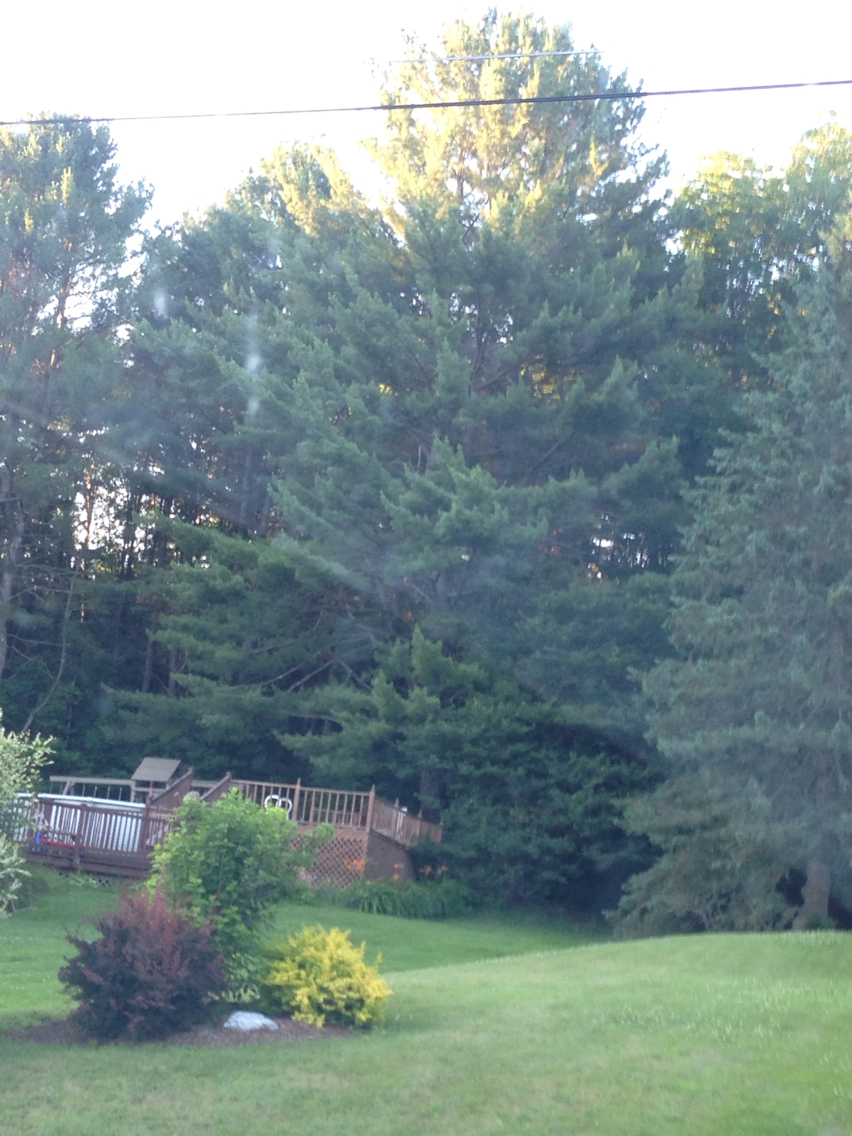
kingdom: Plantae
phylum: Tracheophyta
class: Pinopsida
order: Pinales
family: Pinaceae
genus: Pinus
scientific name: Pinus strobus
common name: Weymouth pine
